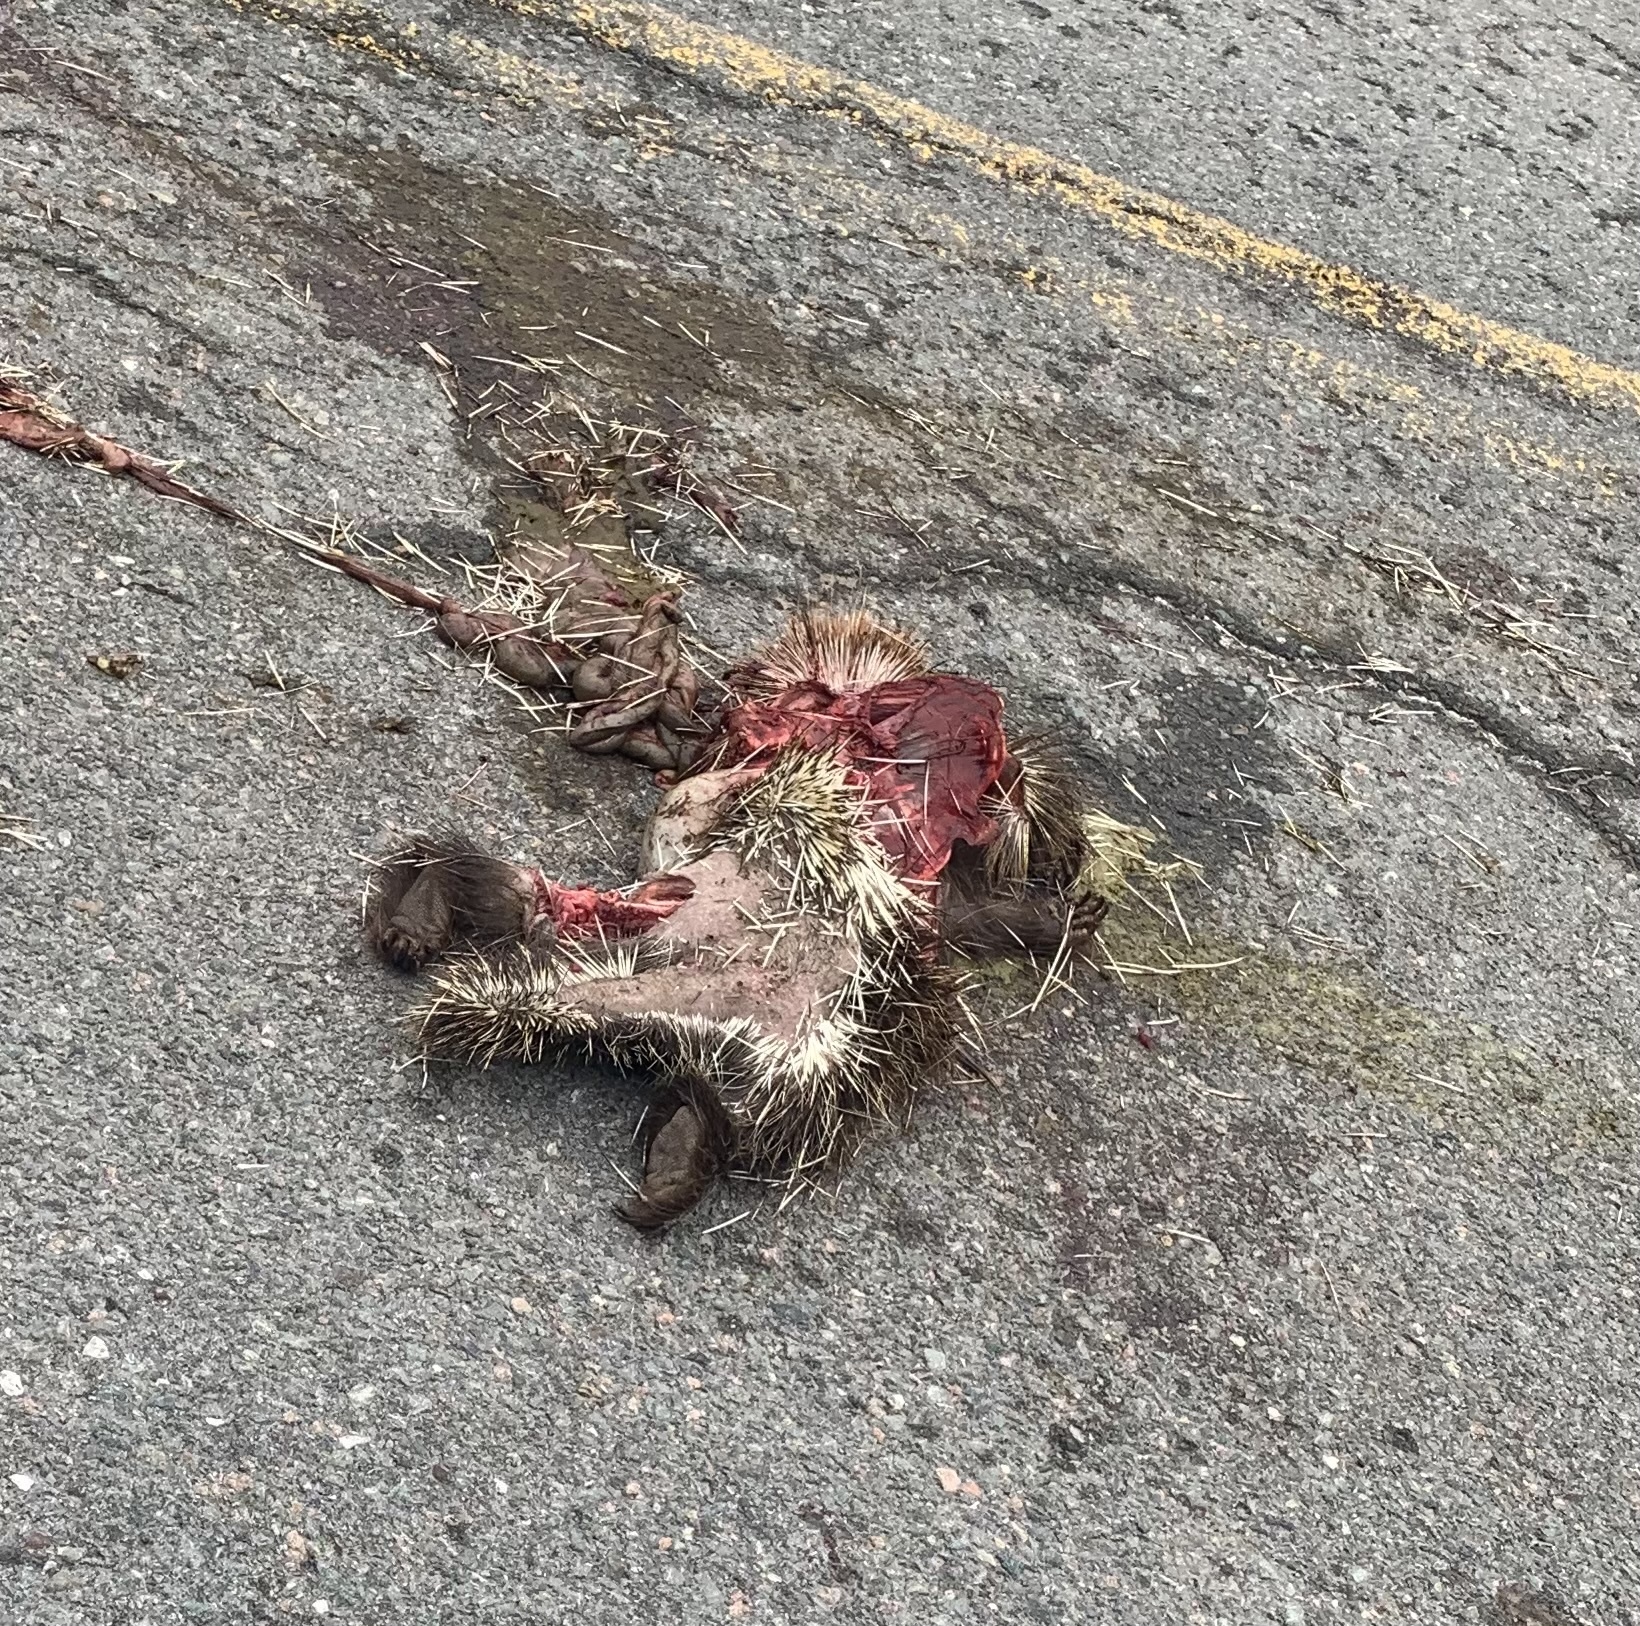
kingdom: Animalia
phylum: Chordata
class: Mammalia
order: Rodentia
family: Erethizontidae
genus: Erethizon
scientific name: Erethizon dorsatus
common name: North american porcupine
